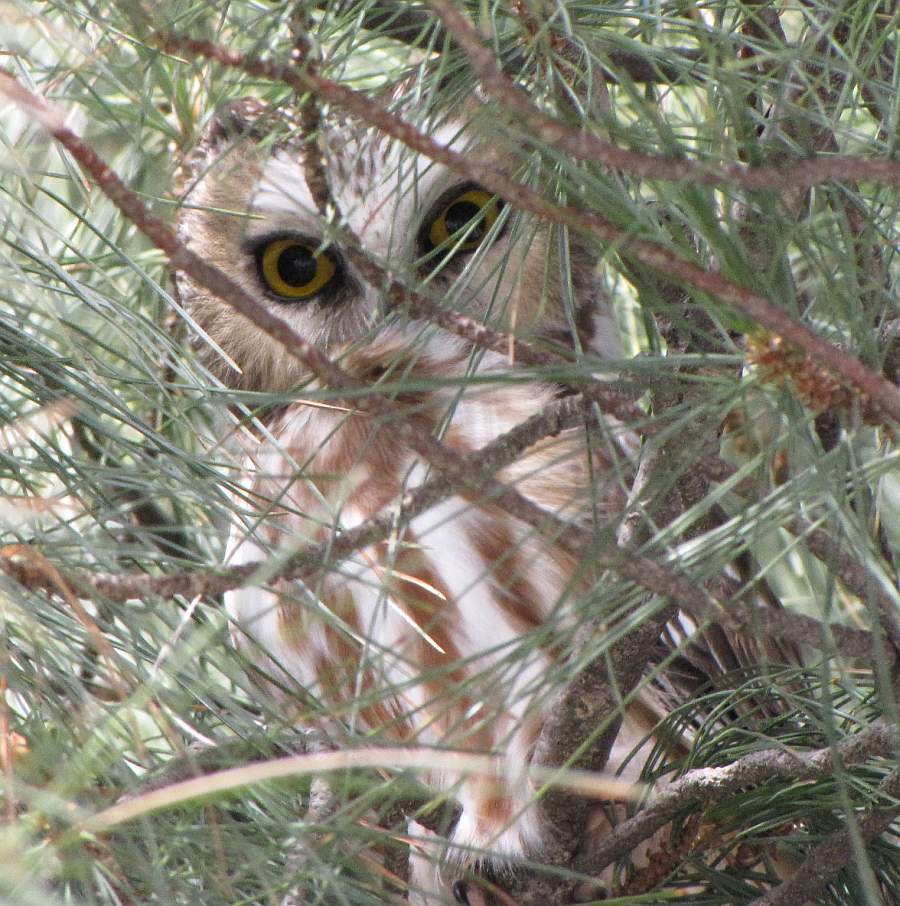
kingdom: Animalia
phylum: Chordata
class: Aves
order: Strigiformes
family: Strigidae
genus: Aegolius
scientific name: Aegolius acadicus
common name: Northern saw-whet owl
